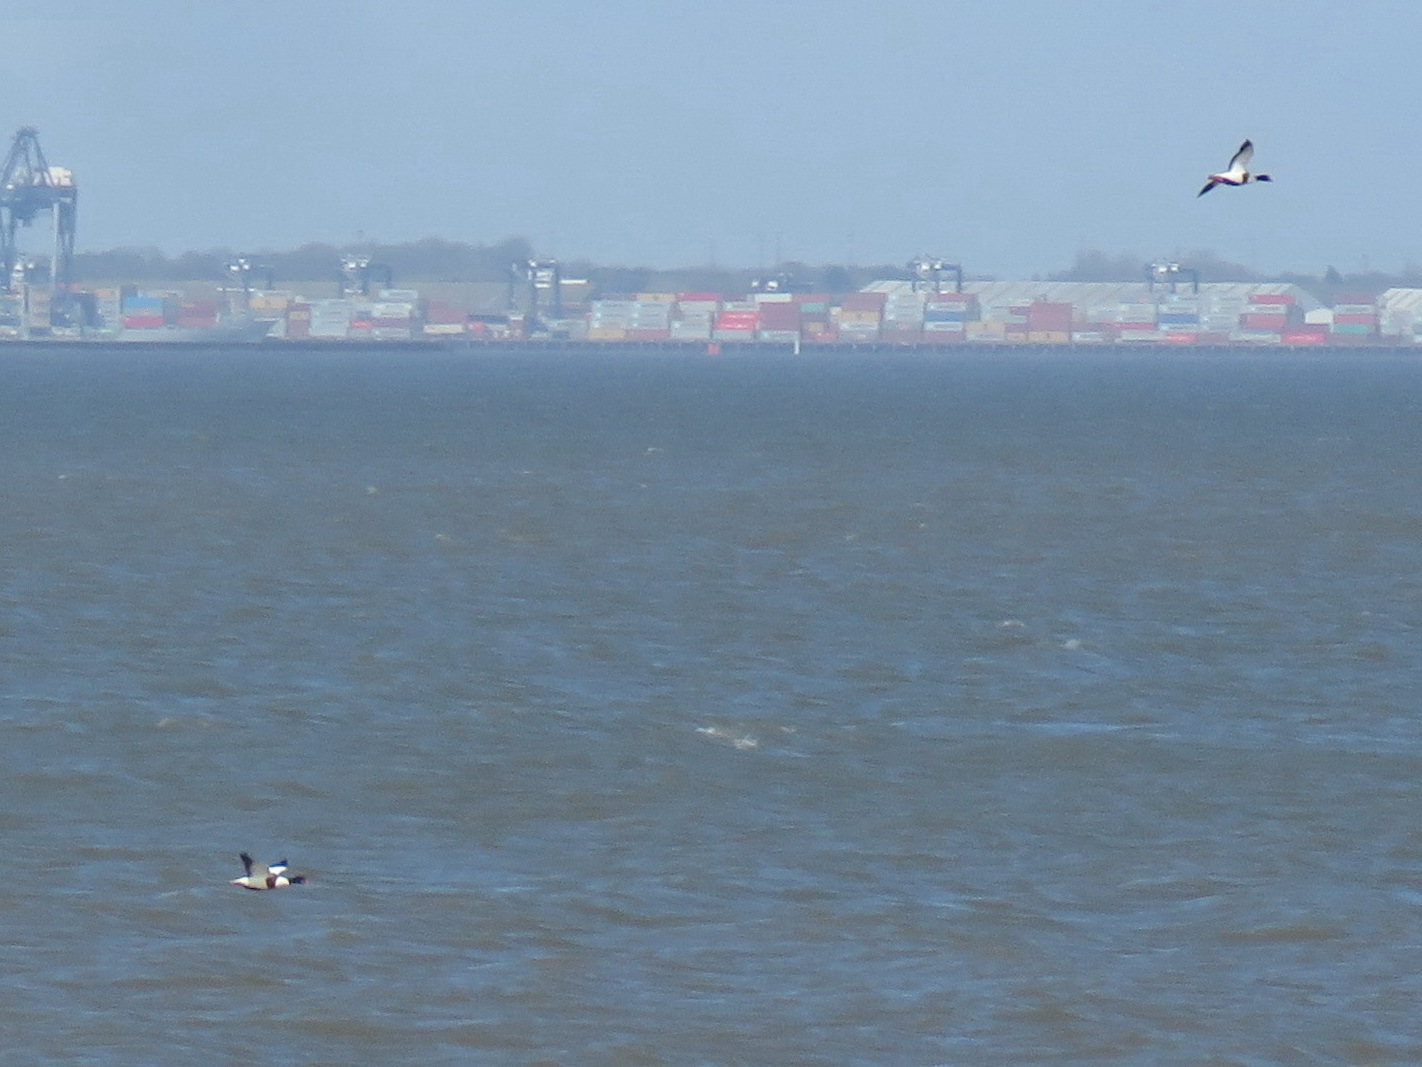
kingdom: Animalia
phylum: Chordata
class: Aves
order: Anseriformes
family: Anatidae
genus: Tadorna
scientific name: Tadorna tadorna
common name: Common shelduck
